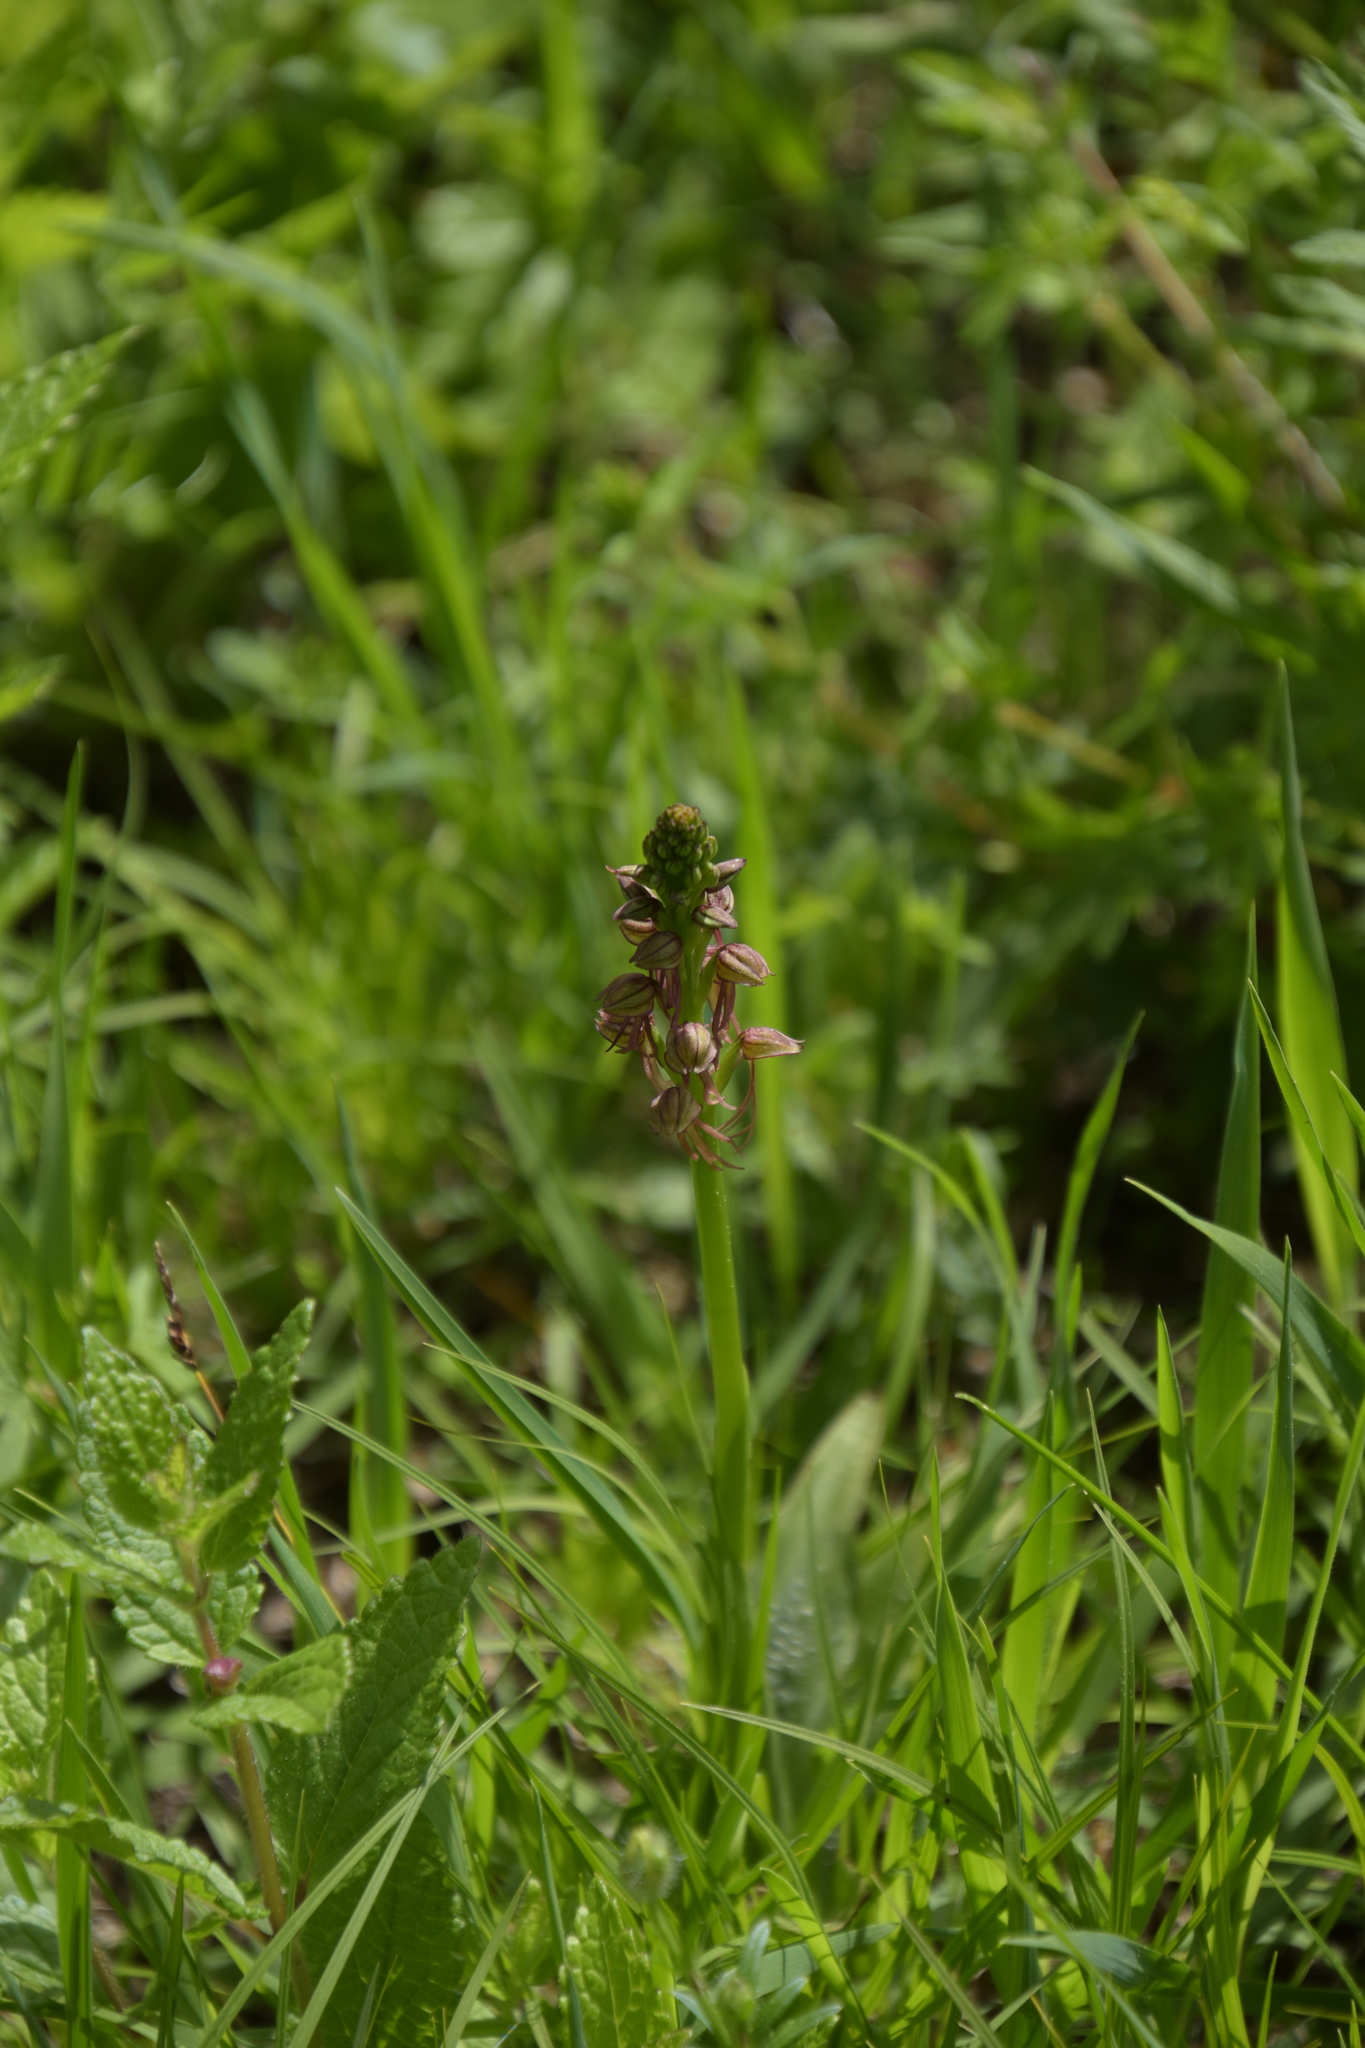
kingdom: Plantae
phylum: Tracheophyta
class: Liliopsida
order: Asparagales
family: Orchidaceae
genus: Orchis
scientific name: Orchis anthropophora
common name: Man orchid
